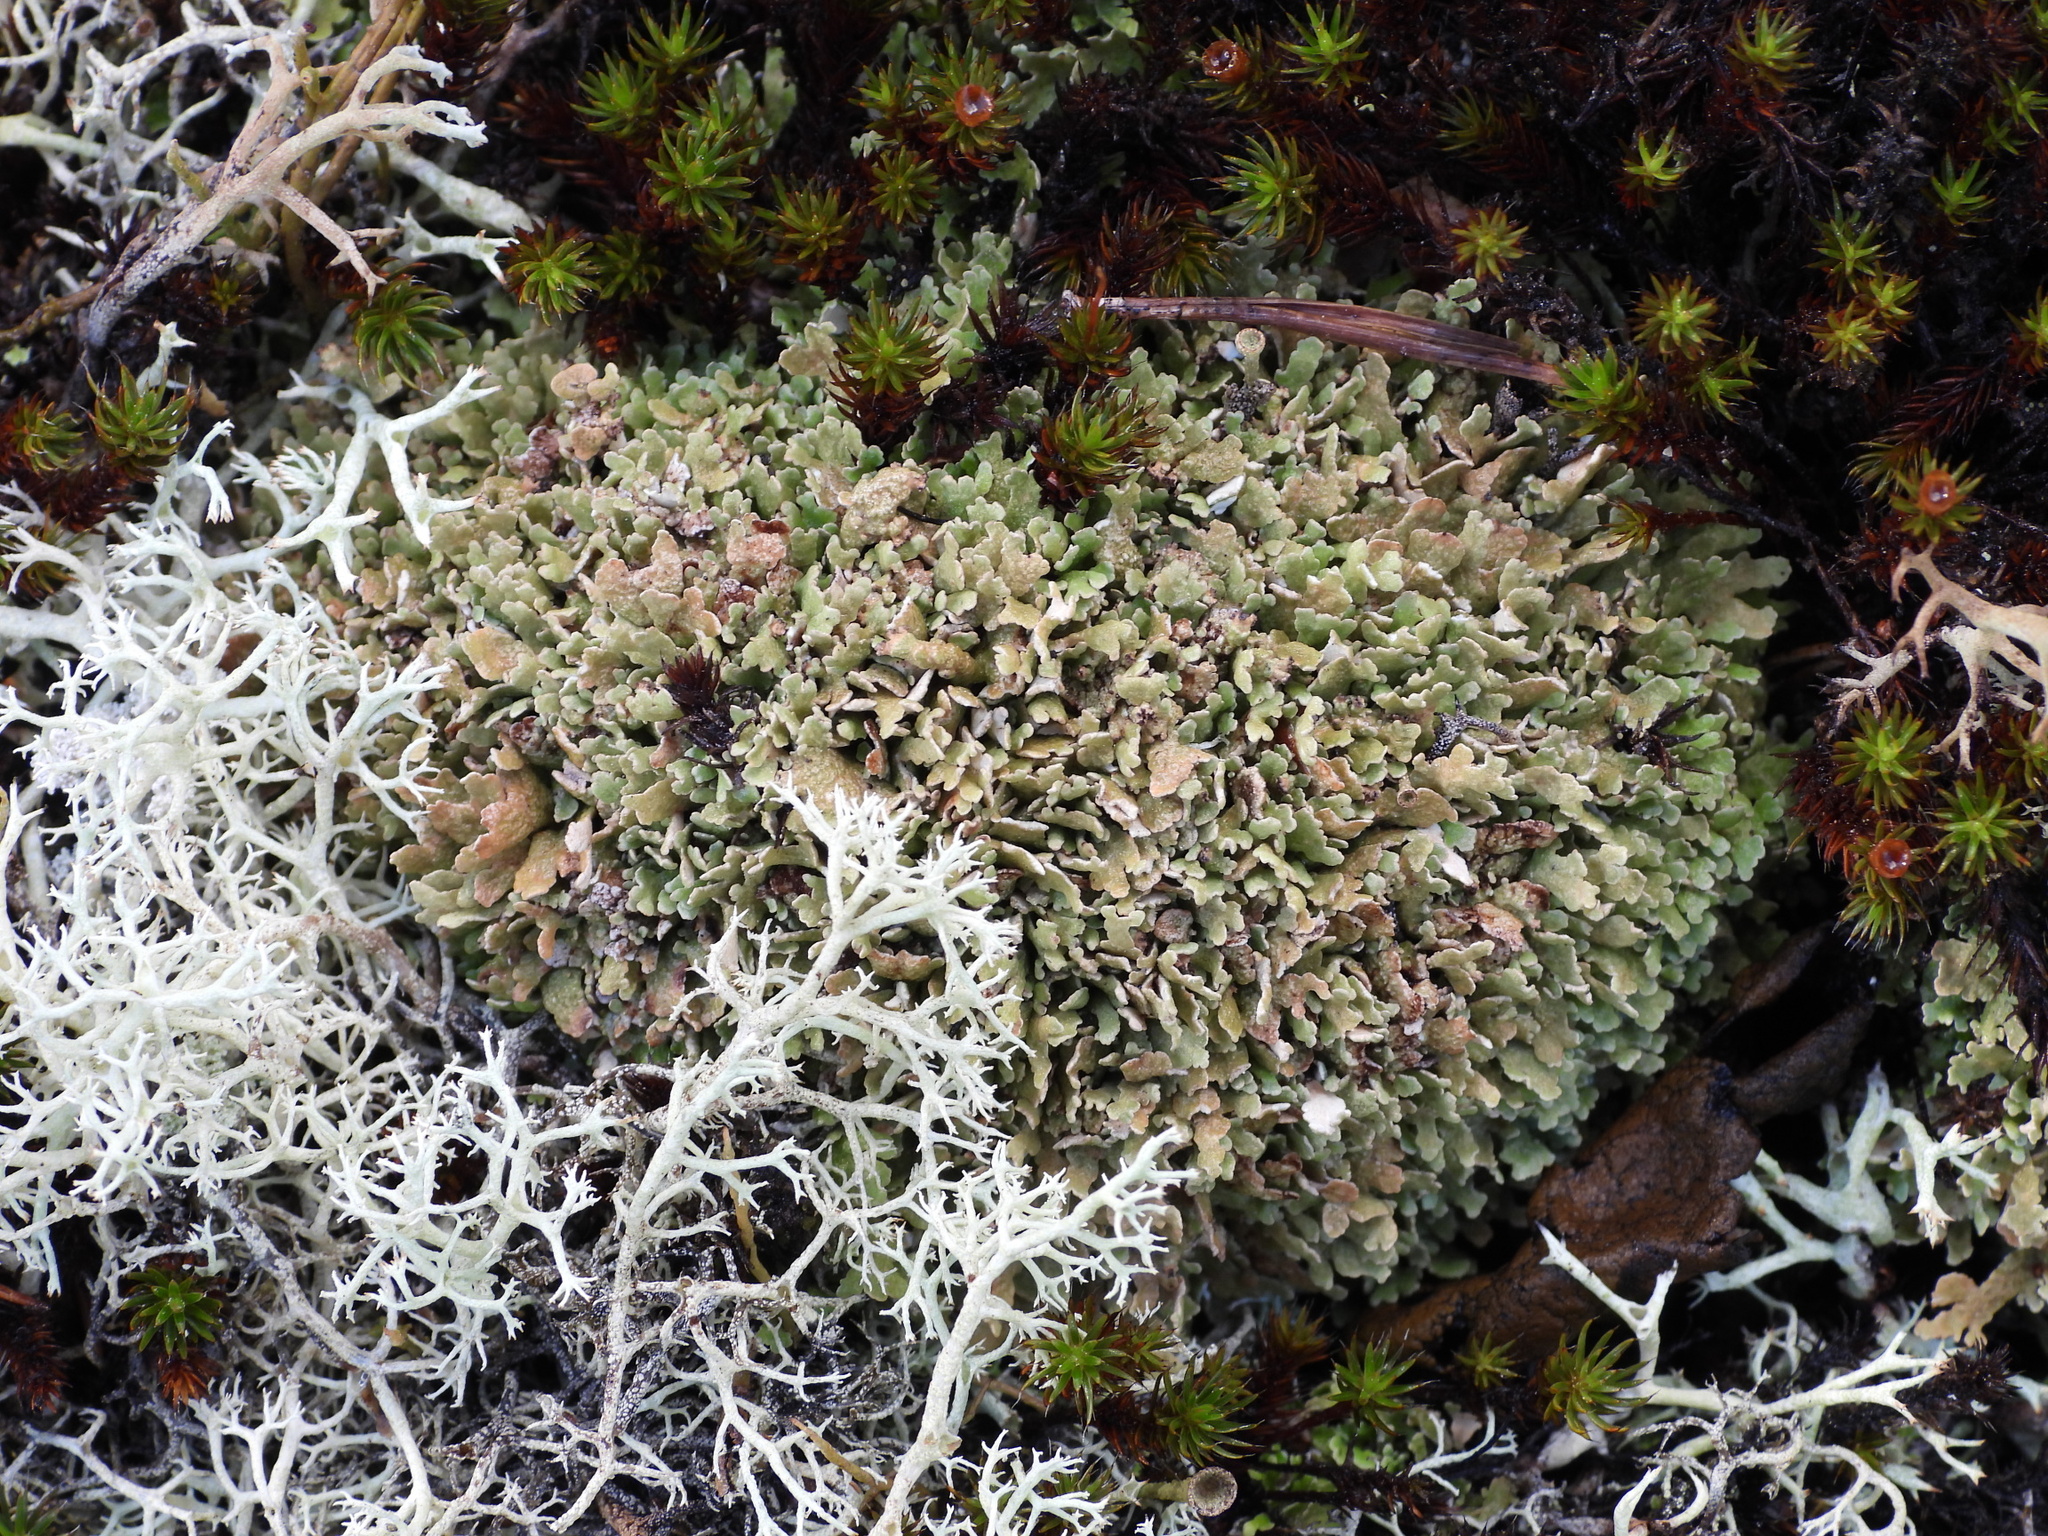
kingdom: Fungi
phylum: Ascomycota
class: Lecanoromycetes
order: Lecanorales
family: Cladoniaceae
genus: Cladonia
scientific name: Cladonia strepsilis
